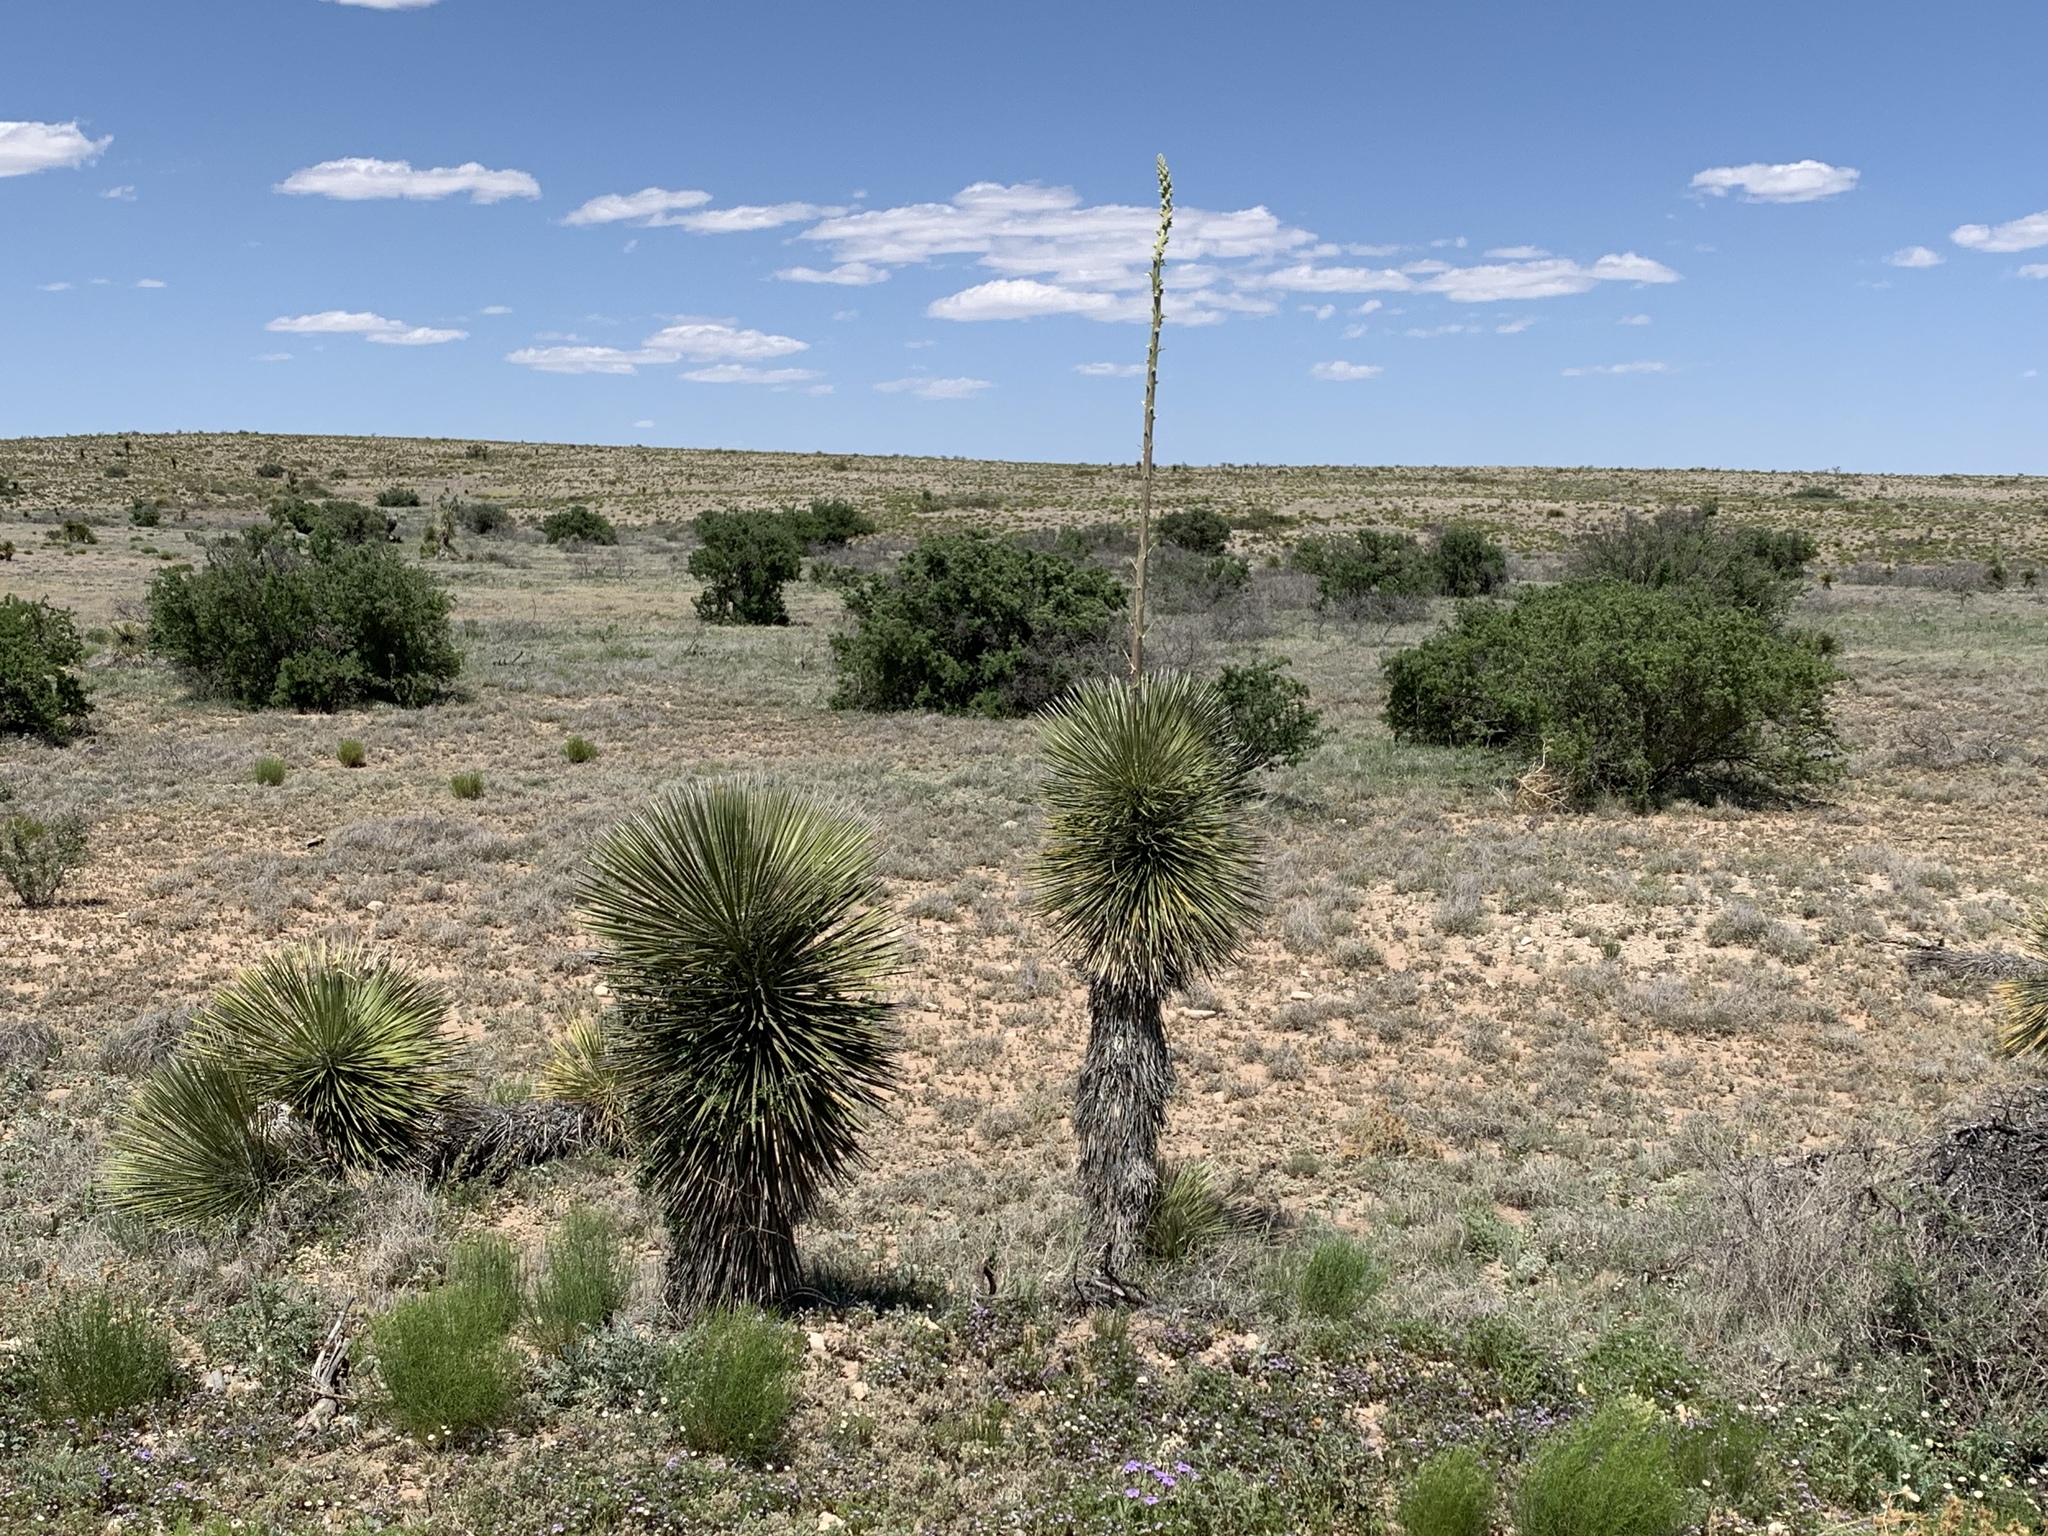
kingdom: Plantae
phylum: Tracheophyta
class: Liliopsida
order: Asparagales
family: Asparagaceae
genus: Yucca
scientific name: Yucca elata
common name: Palmella
